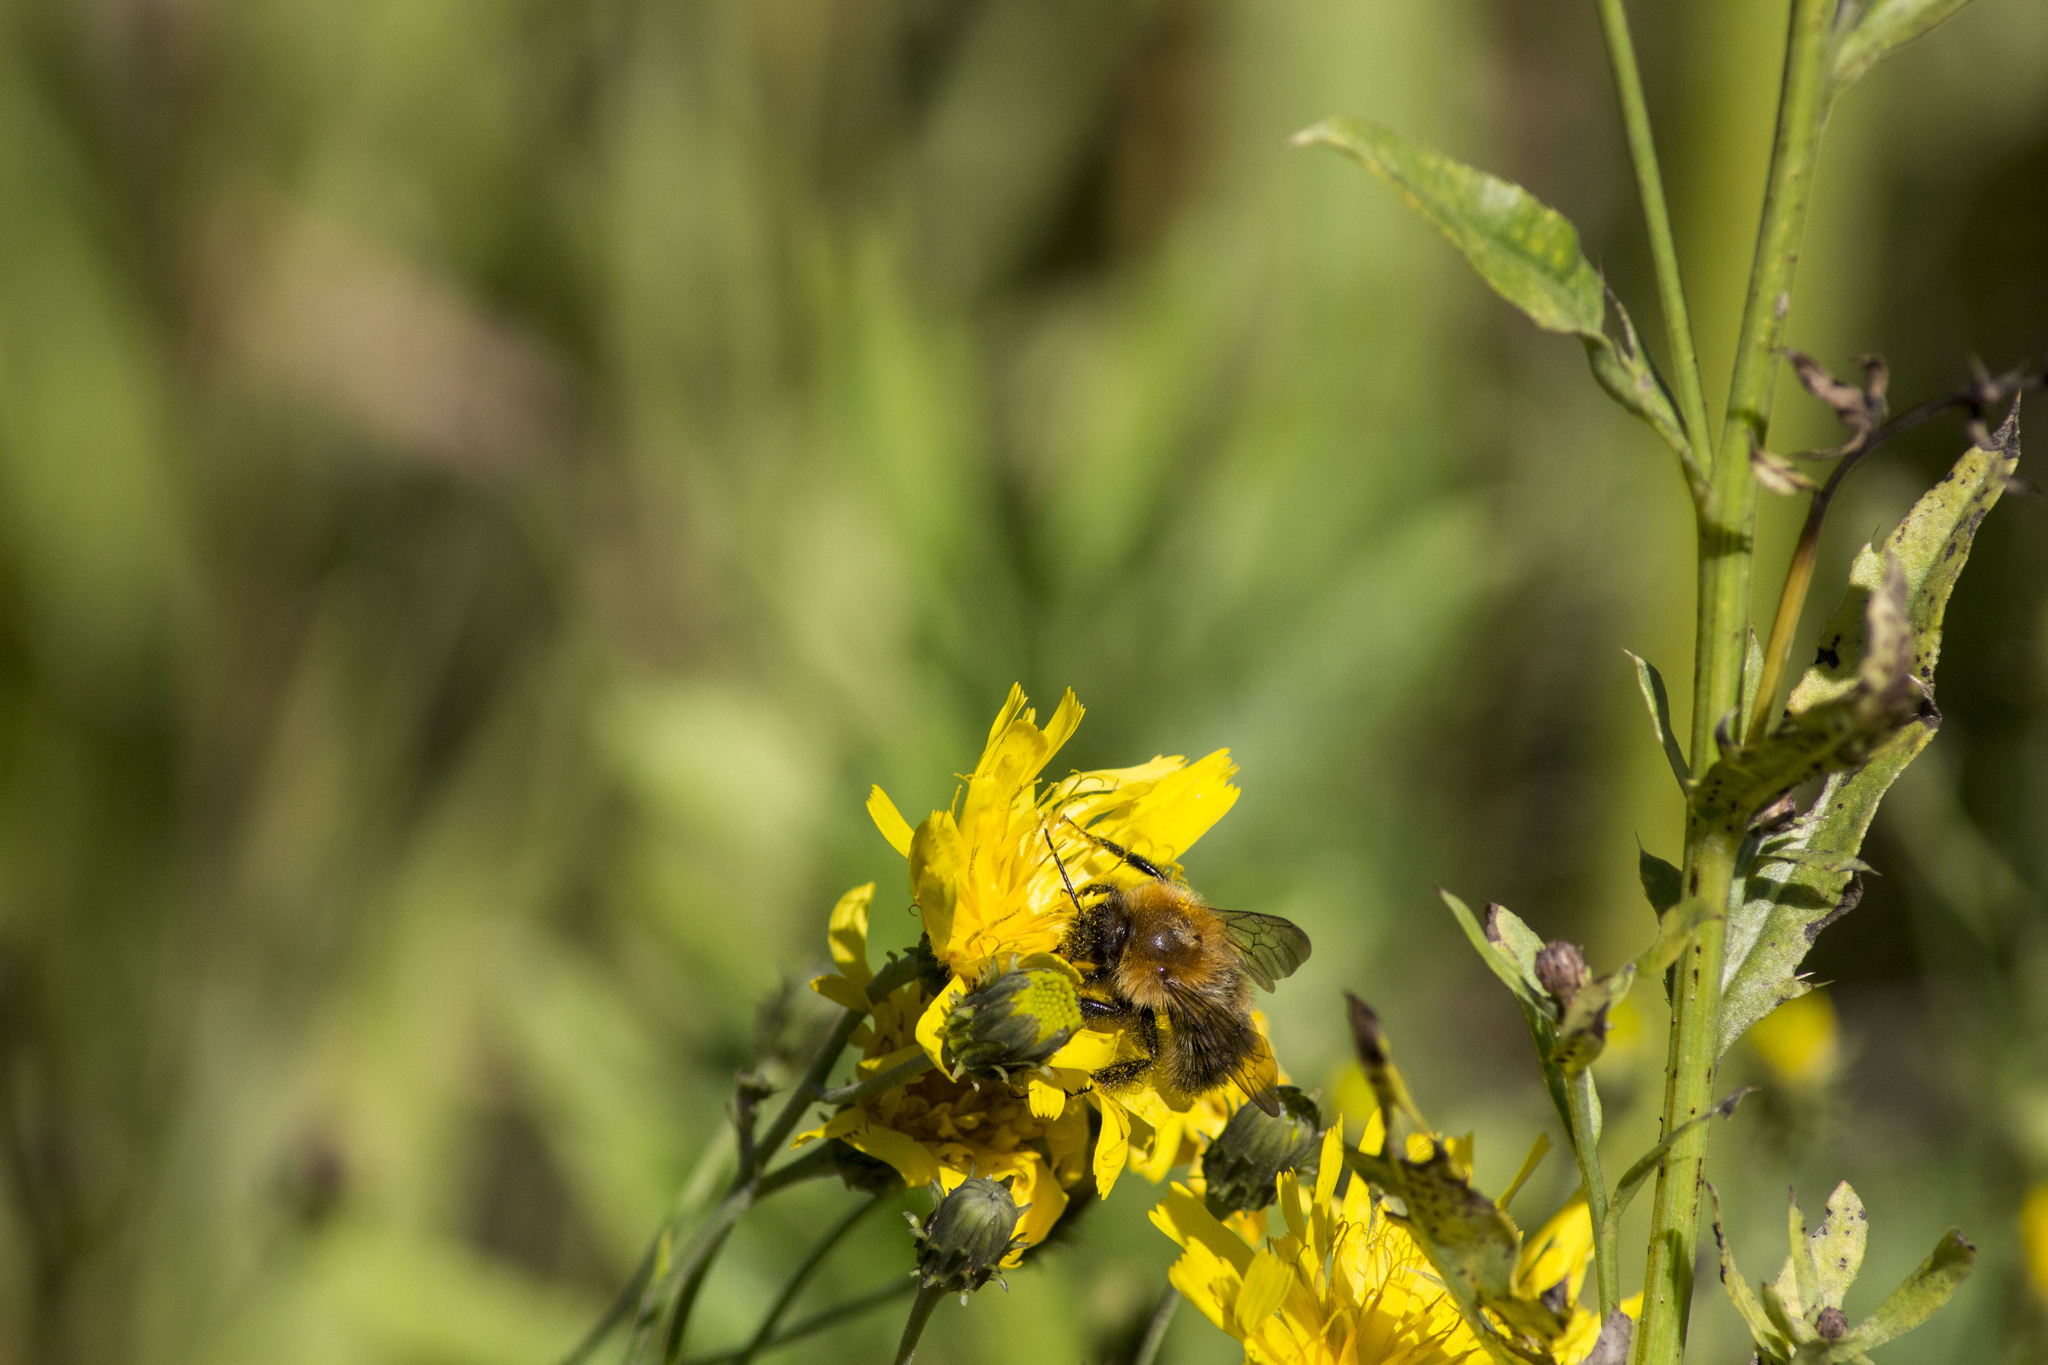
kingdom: Animalia
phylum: Arthropoda
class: Insecta
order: Hymenoptera
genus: Thoracobombus
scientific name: Thoracobombus
